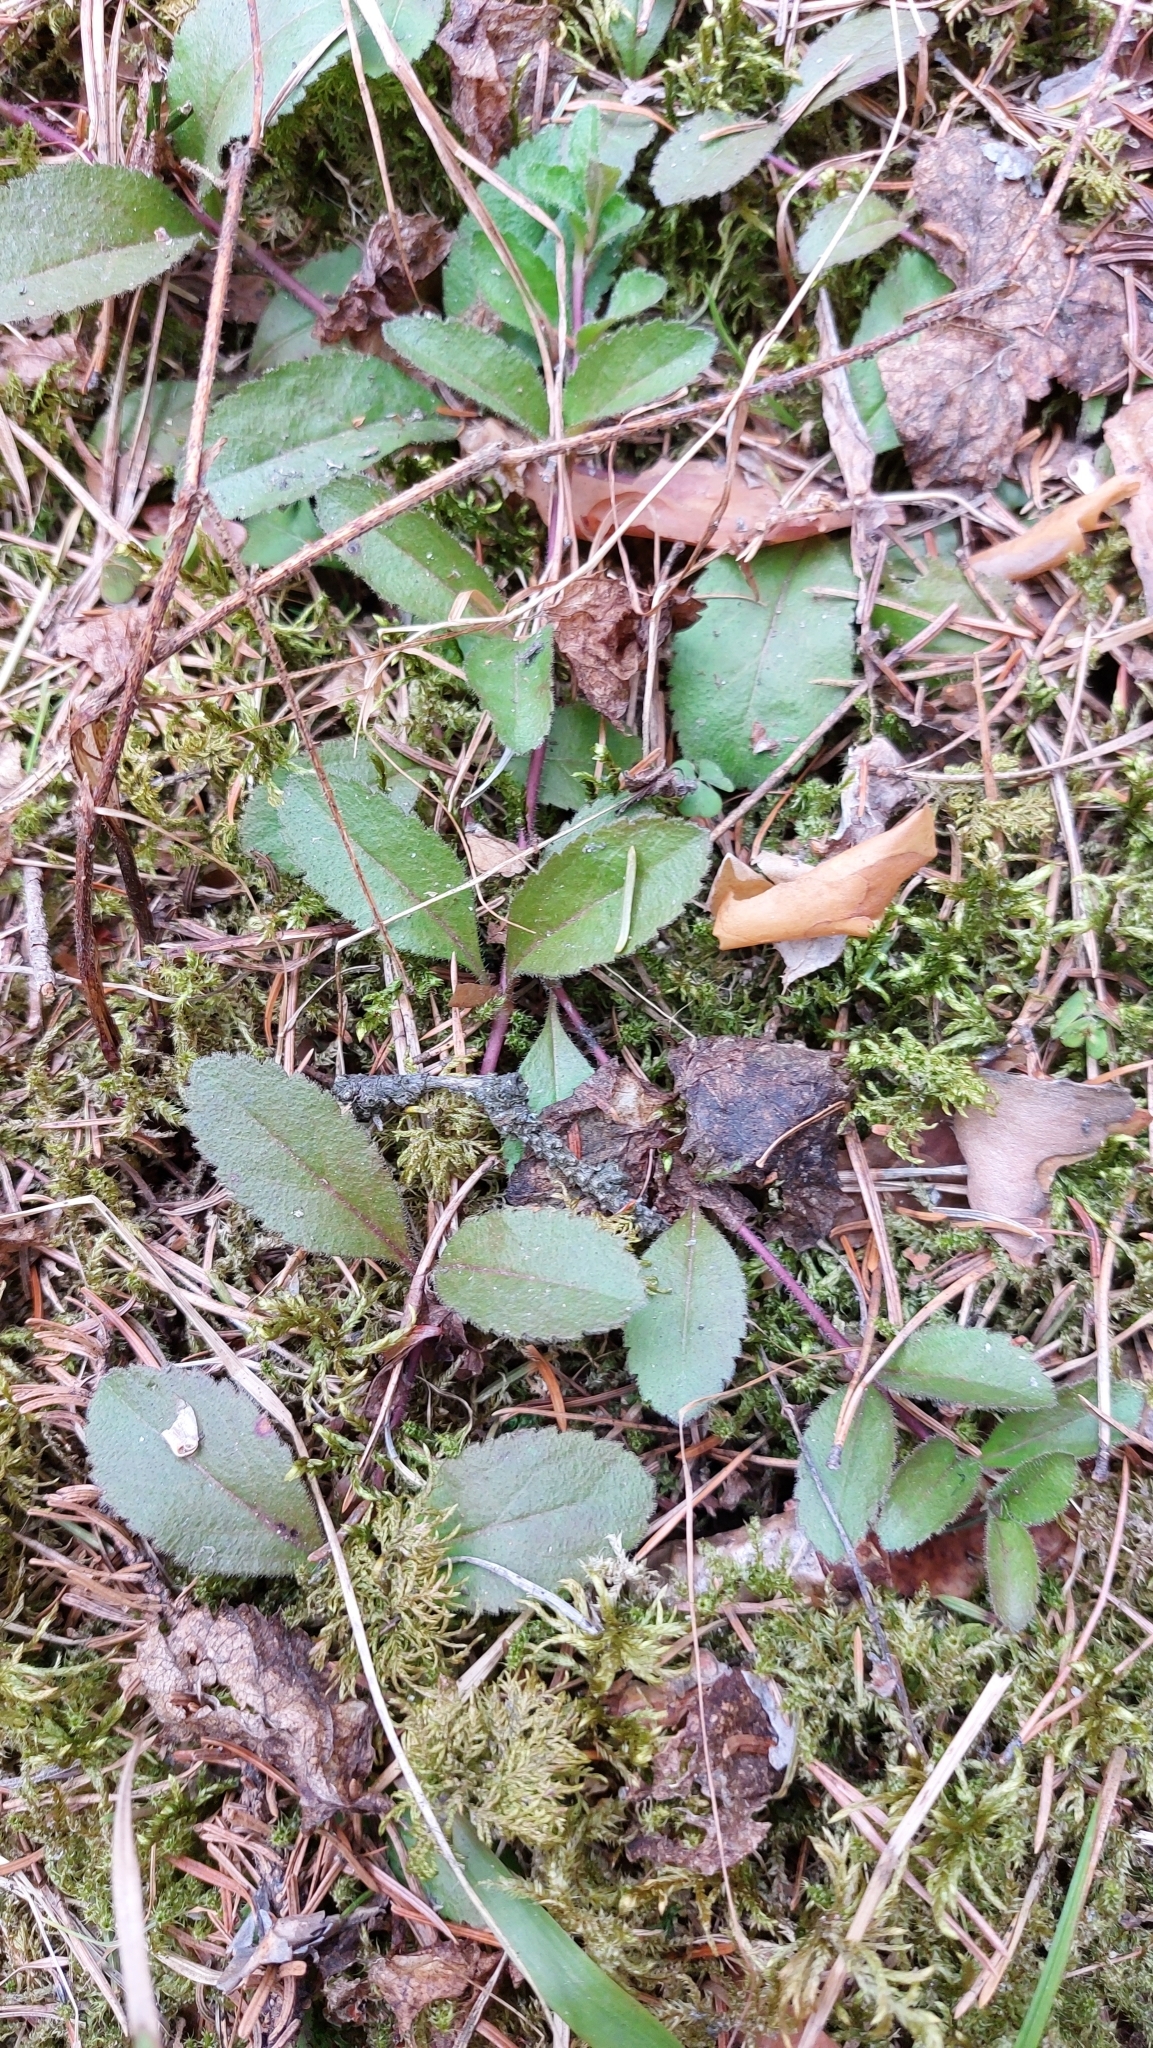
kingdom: Plantae
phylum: Tracheophyta
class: Magnoliopsida
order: Lamiales
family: Plantaginaceae
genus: Veronica
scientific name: Veronica officinalis
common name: Common speedwell
